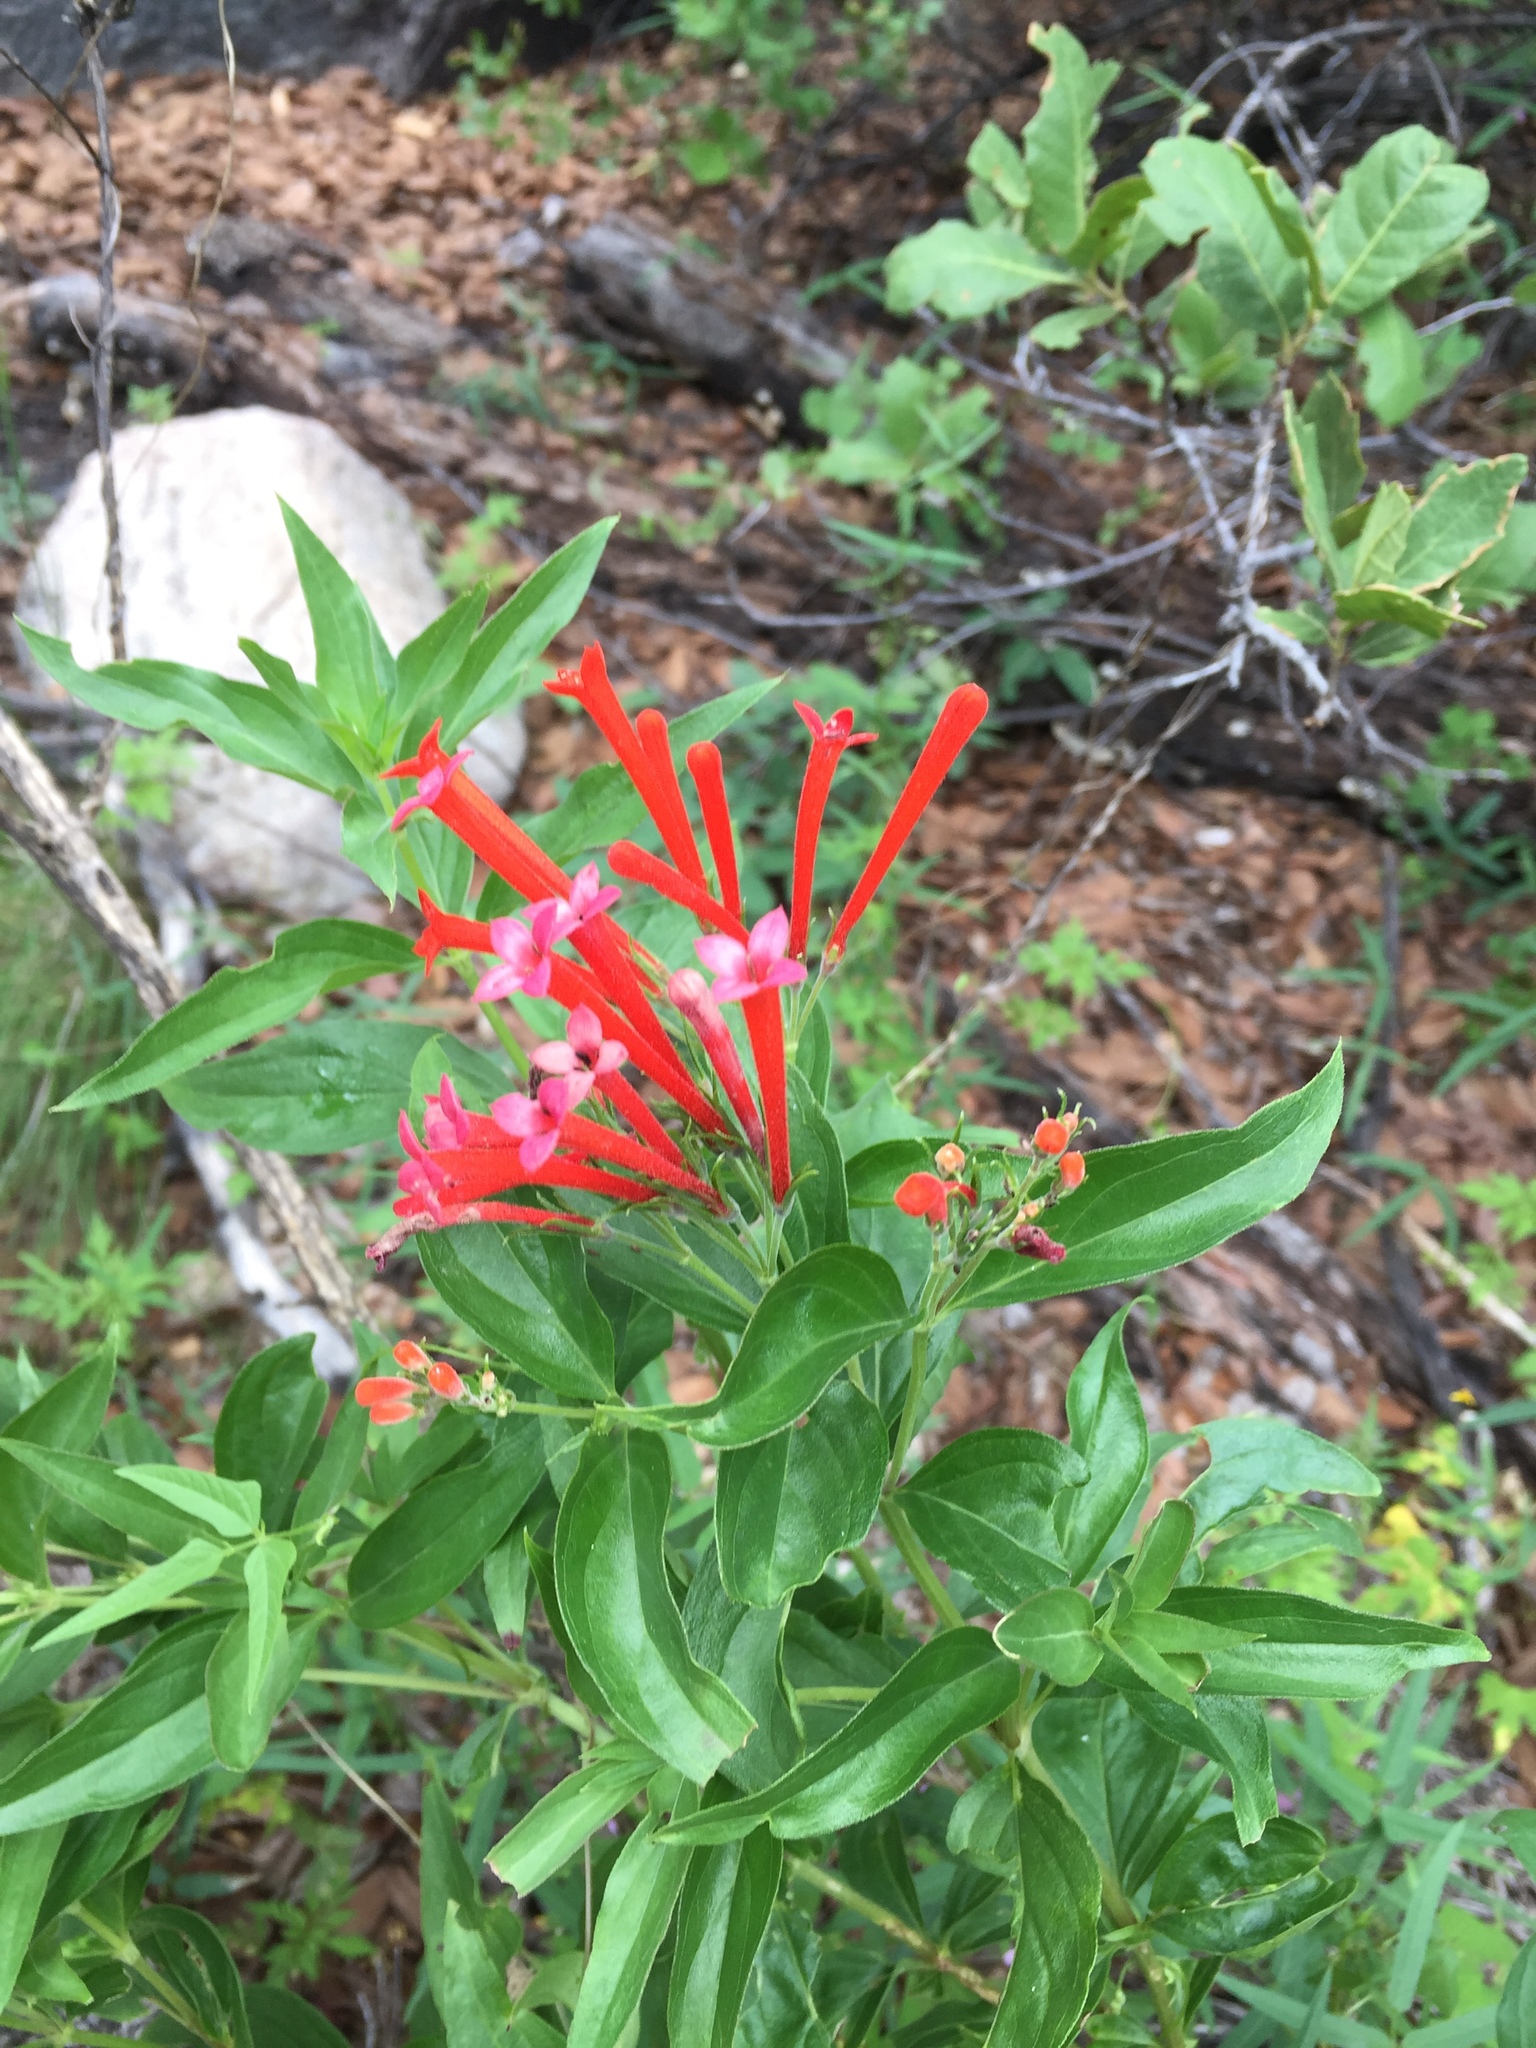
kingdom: Plantae
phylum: Tracheophyta
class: Magnoliopsida
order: Gentianales
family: Rubiaceae
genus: Bouvardia
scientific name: Bouvardia ternifolia
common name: Scarlet bouvardia
